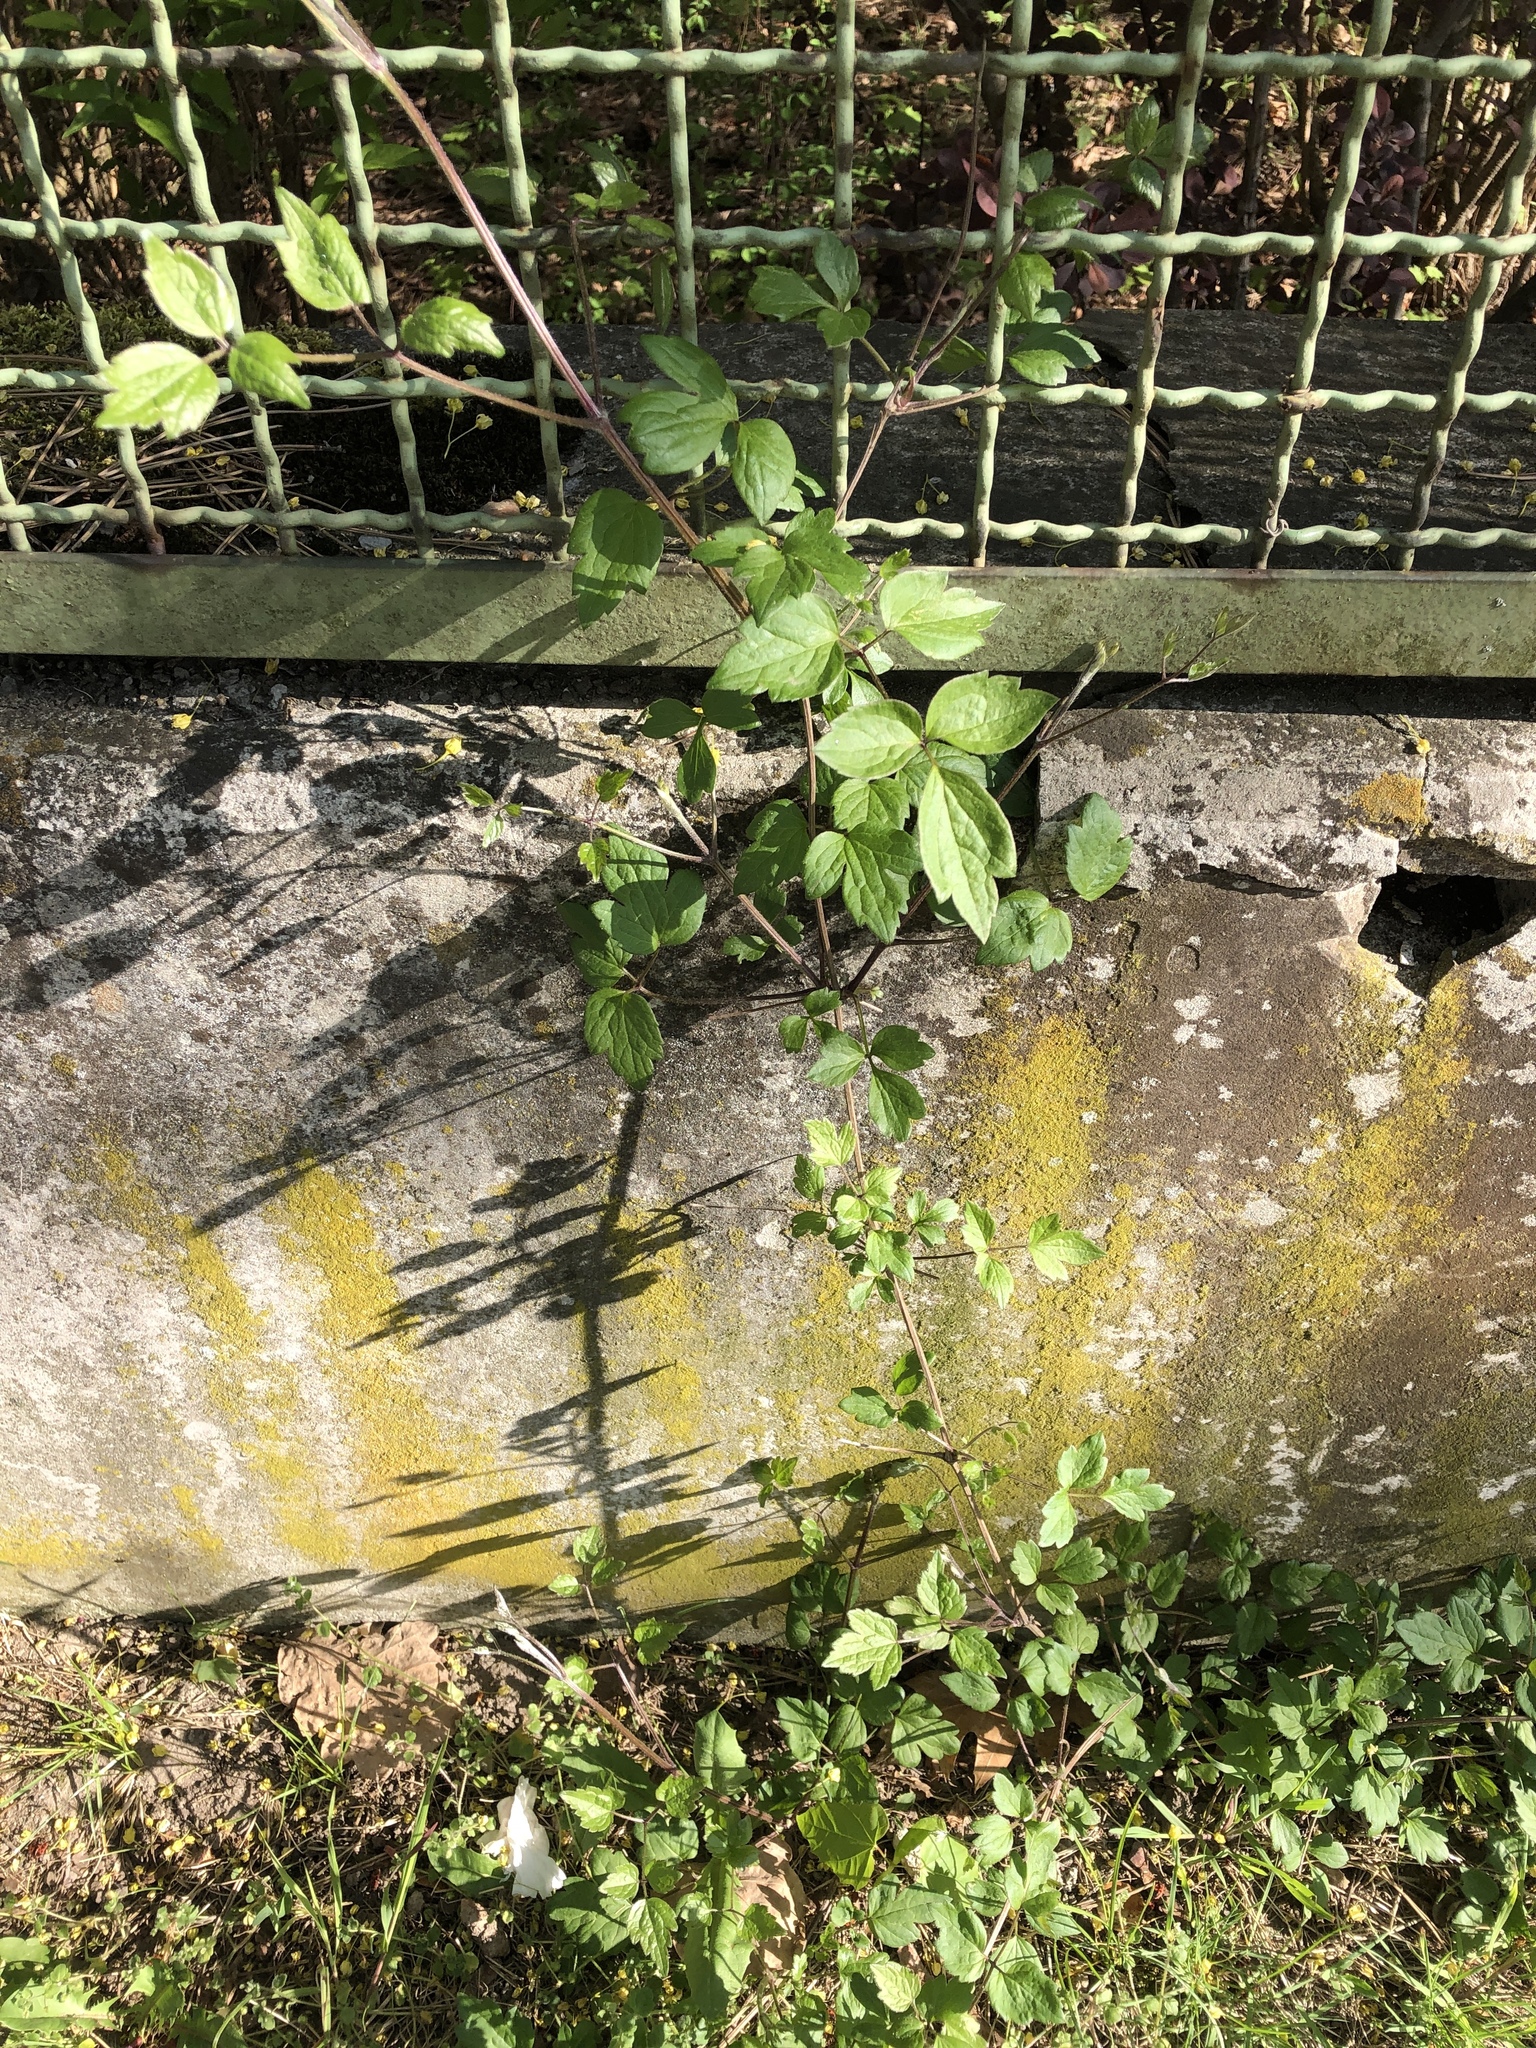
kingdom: Plantae
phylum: Tracheophyta
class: Magnoliopsida
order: Ranunculales
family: Ranunculaceae
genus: Clematis
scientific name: Clematis vitalba
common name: Evergreen clematis
